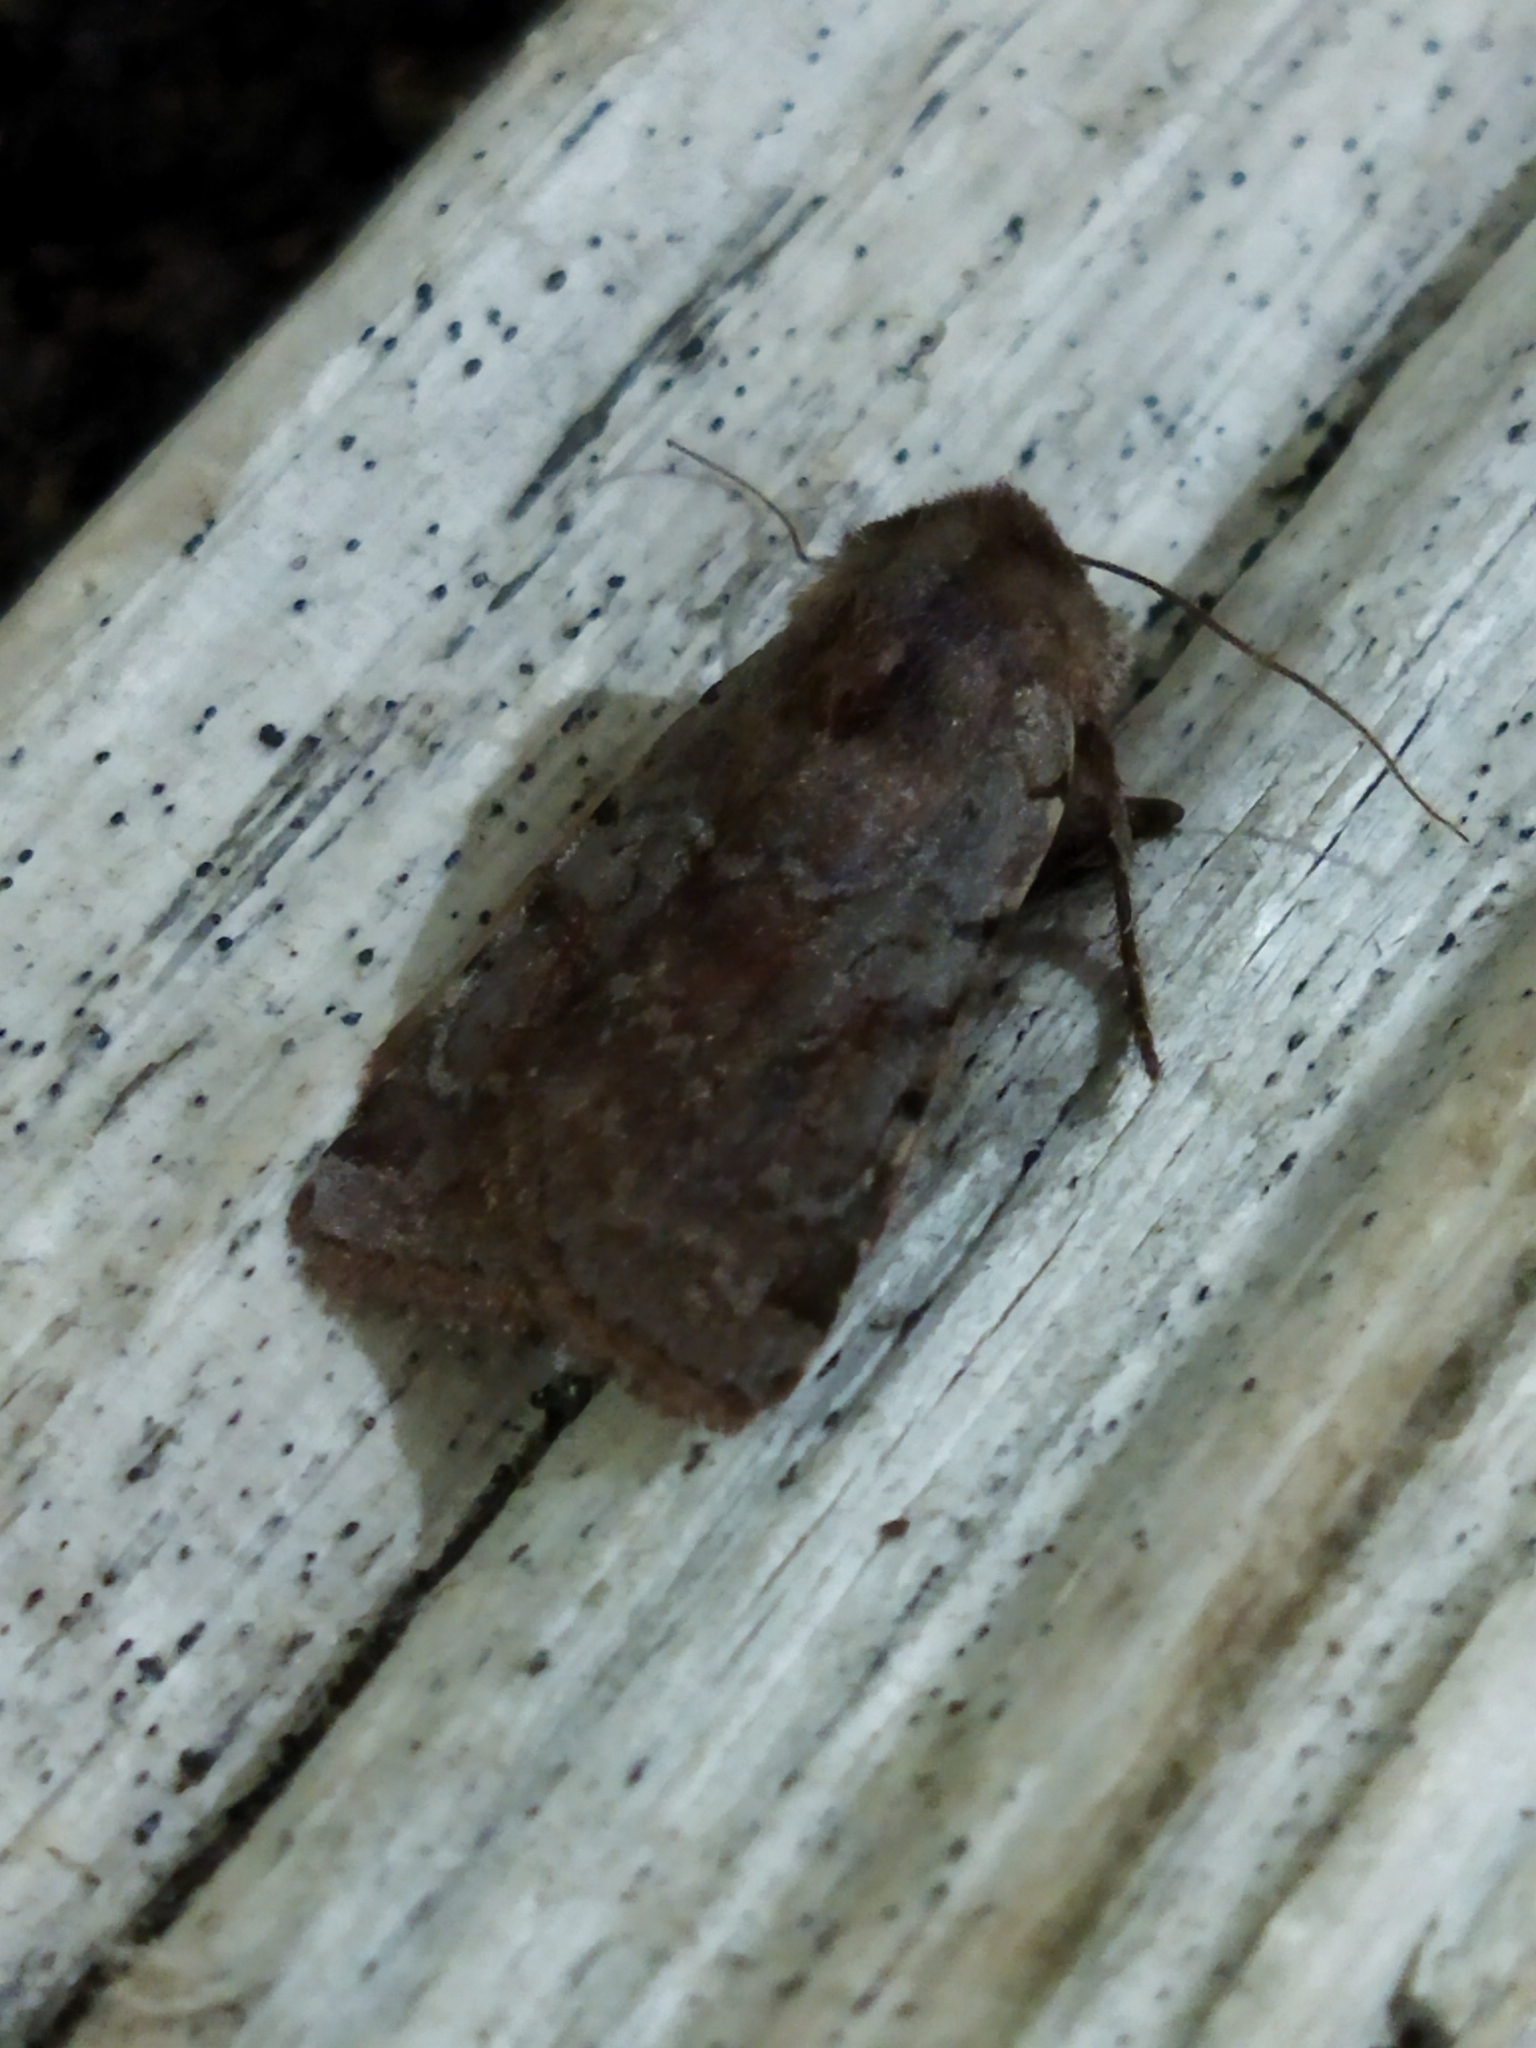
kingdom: Animalia
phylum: Arthropoda
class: Insecta
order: Lepidoptera
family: Noctuidae
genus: Cerastis
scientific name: Cerastis rubricosa
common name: Red chestnut
